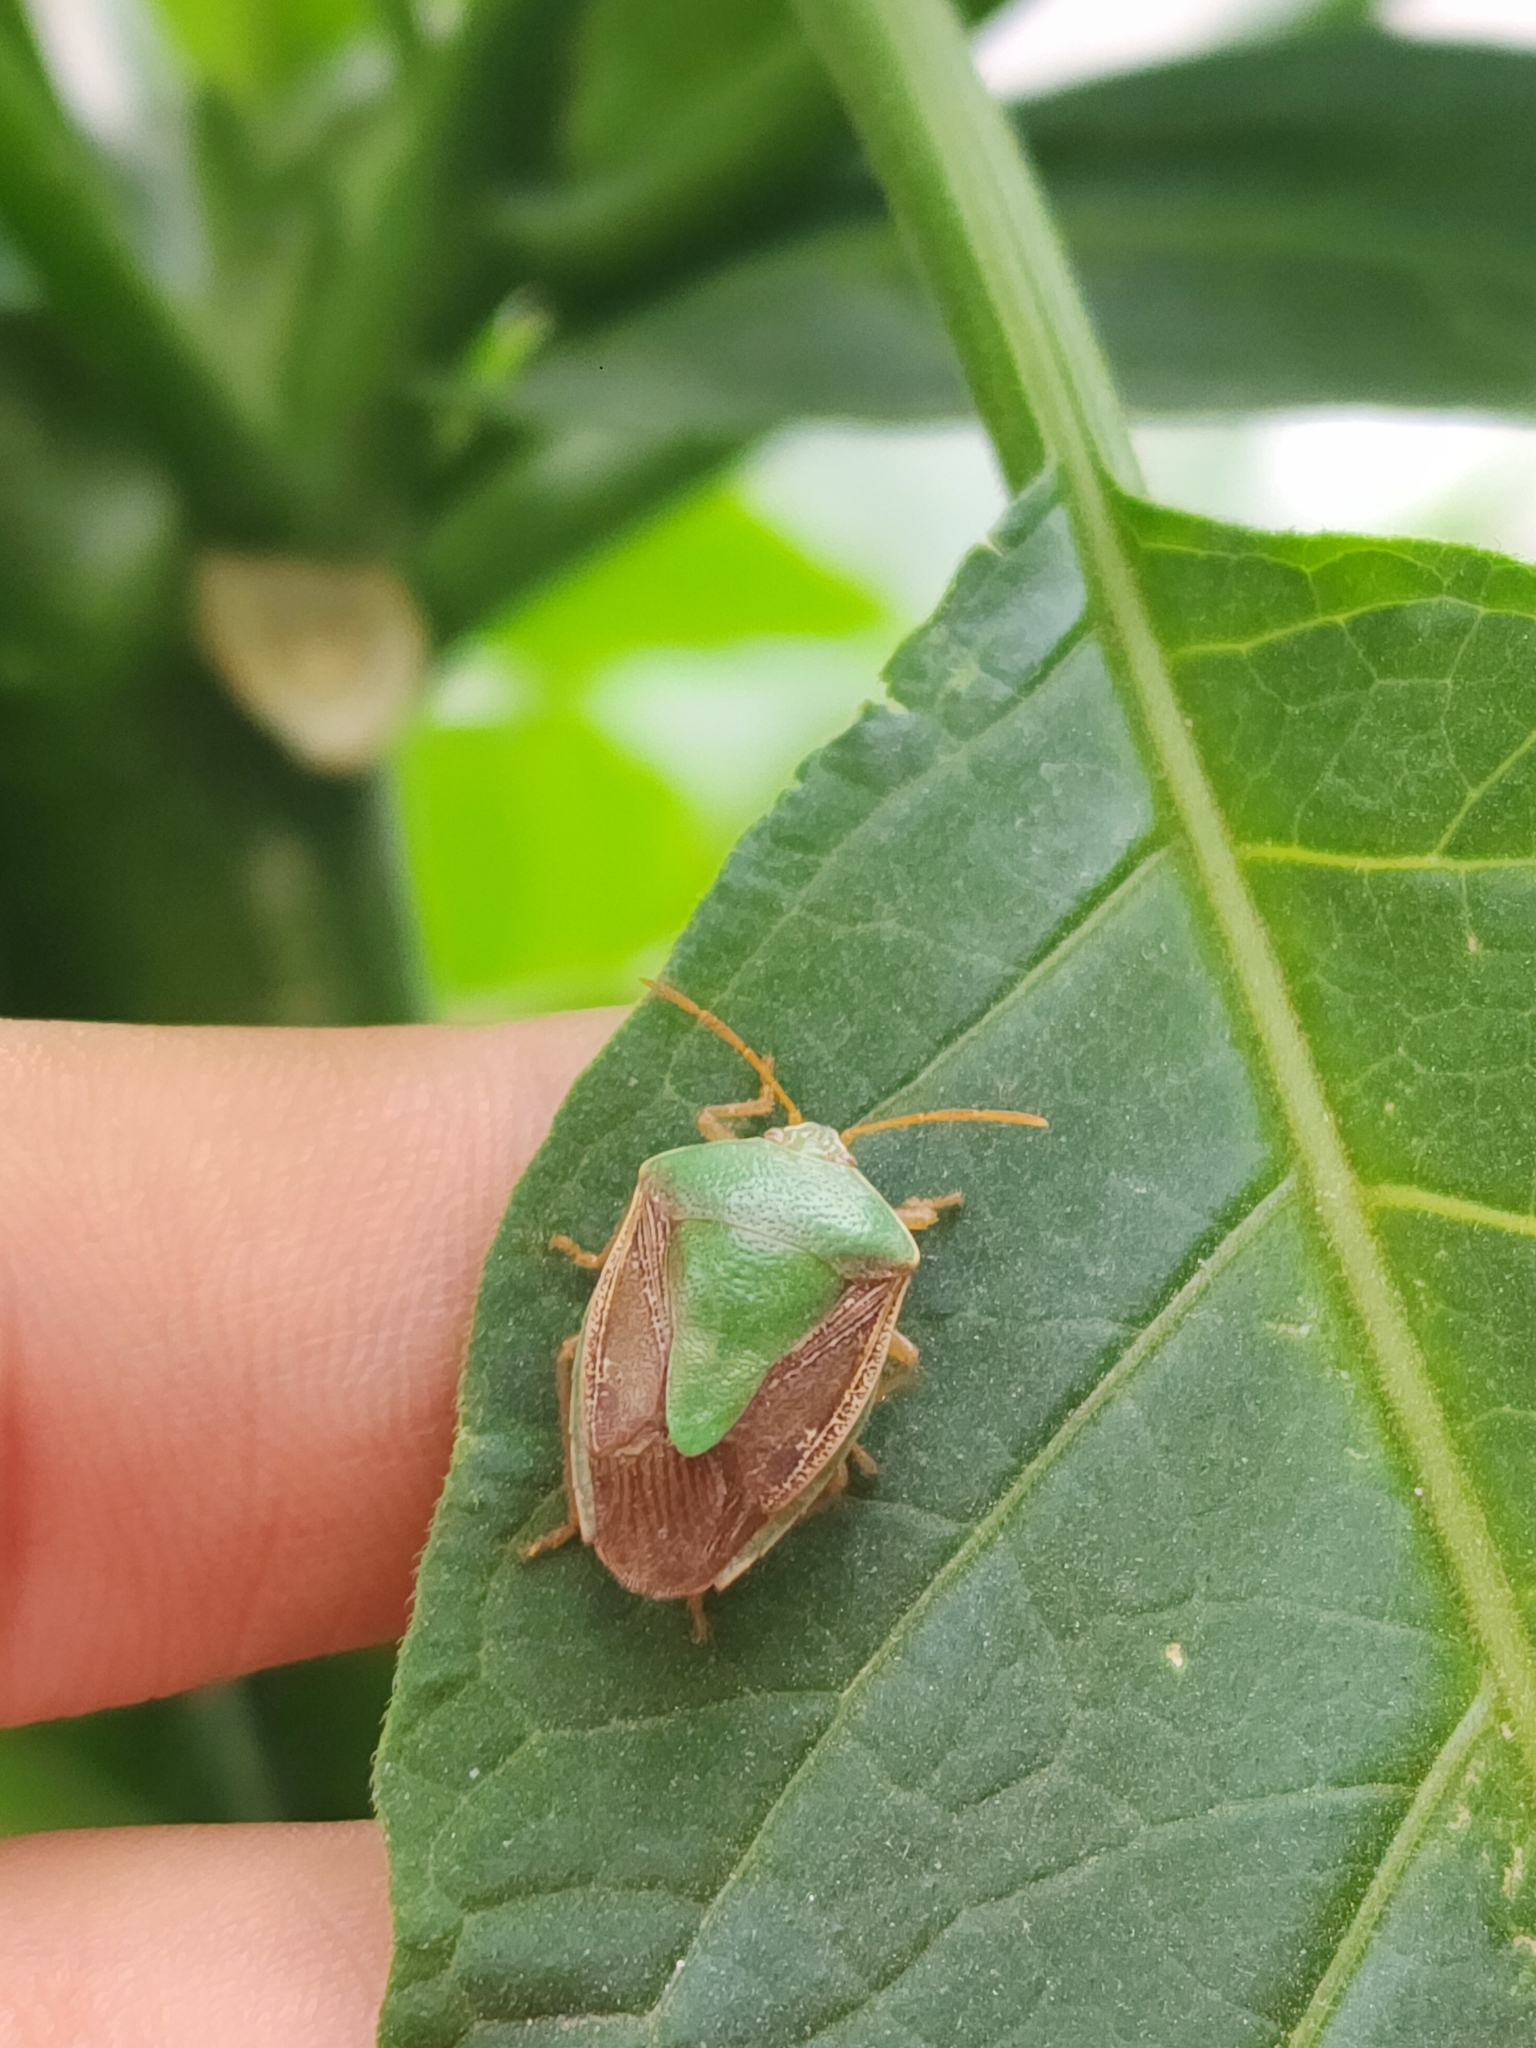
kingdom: Animalia
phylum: Arthropoda
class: Insecta
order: Hemiptera
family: Pentatomidae
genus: Edessa
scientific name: Edessa meditabunda
